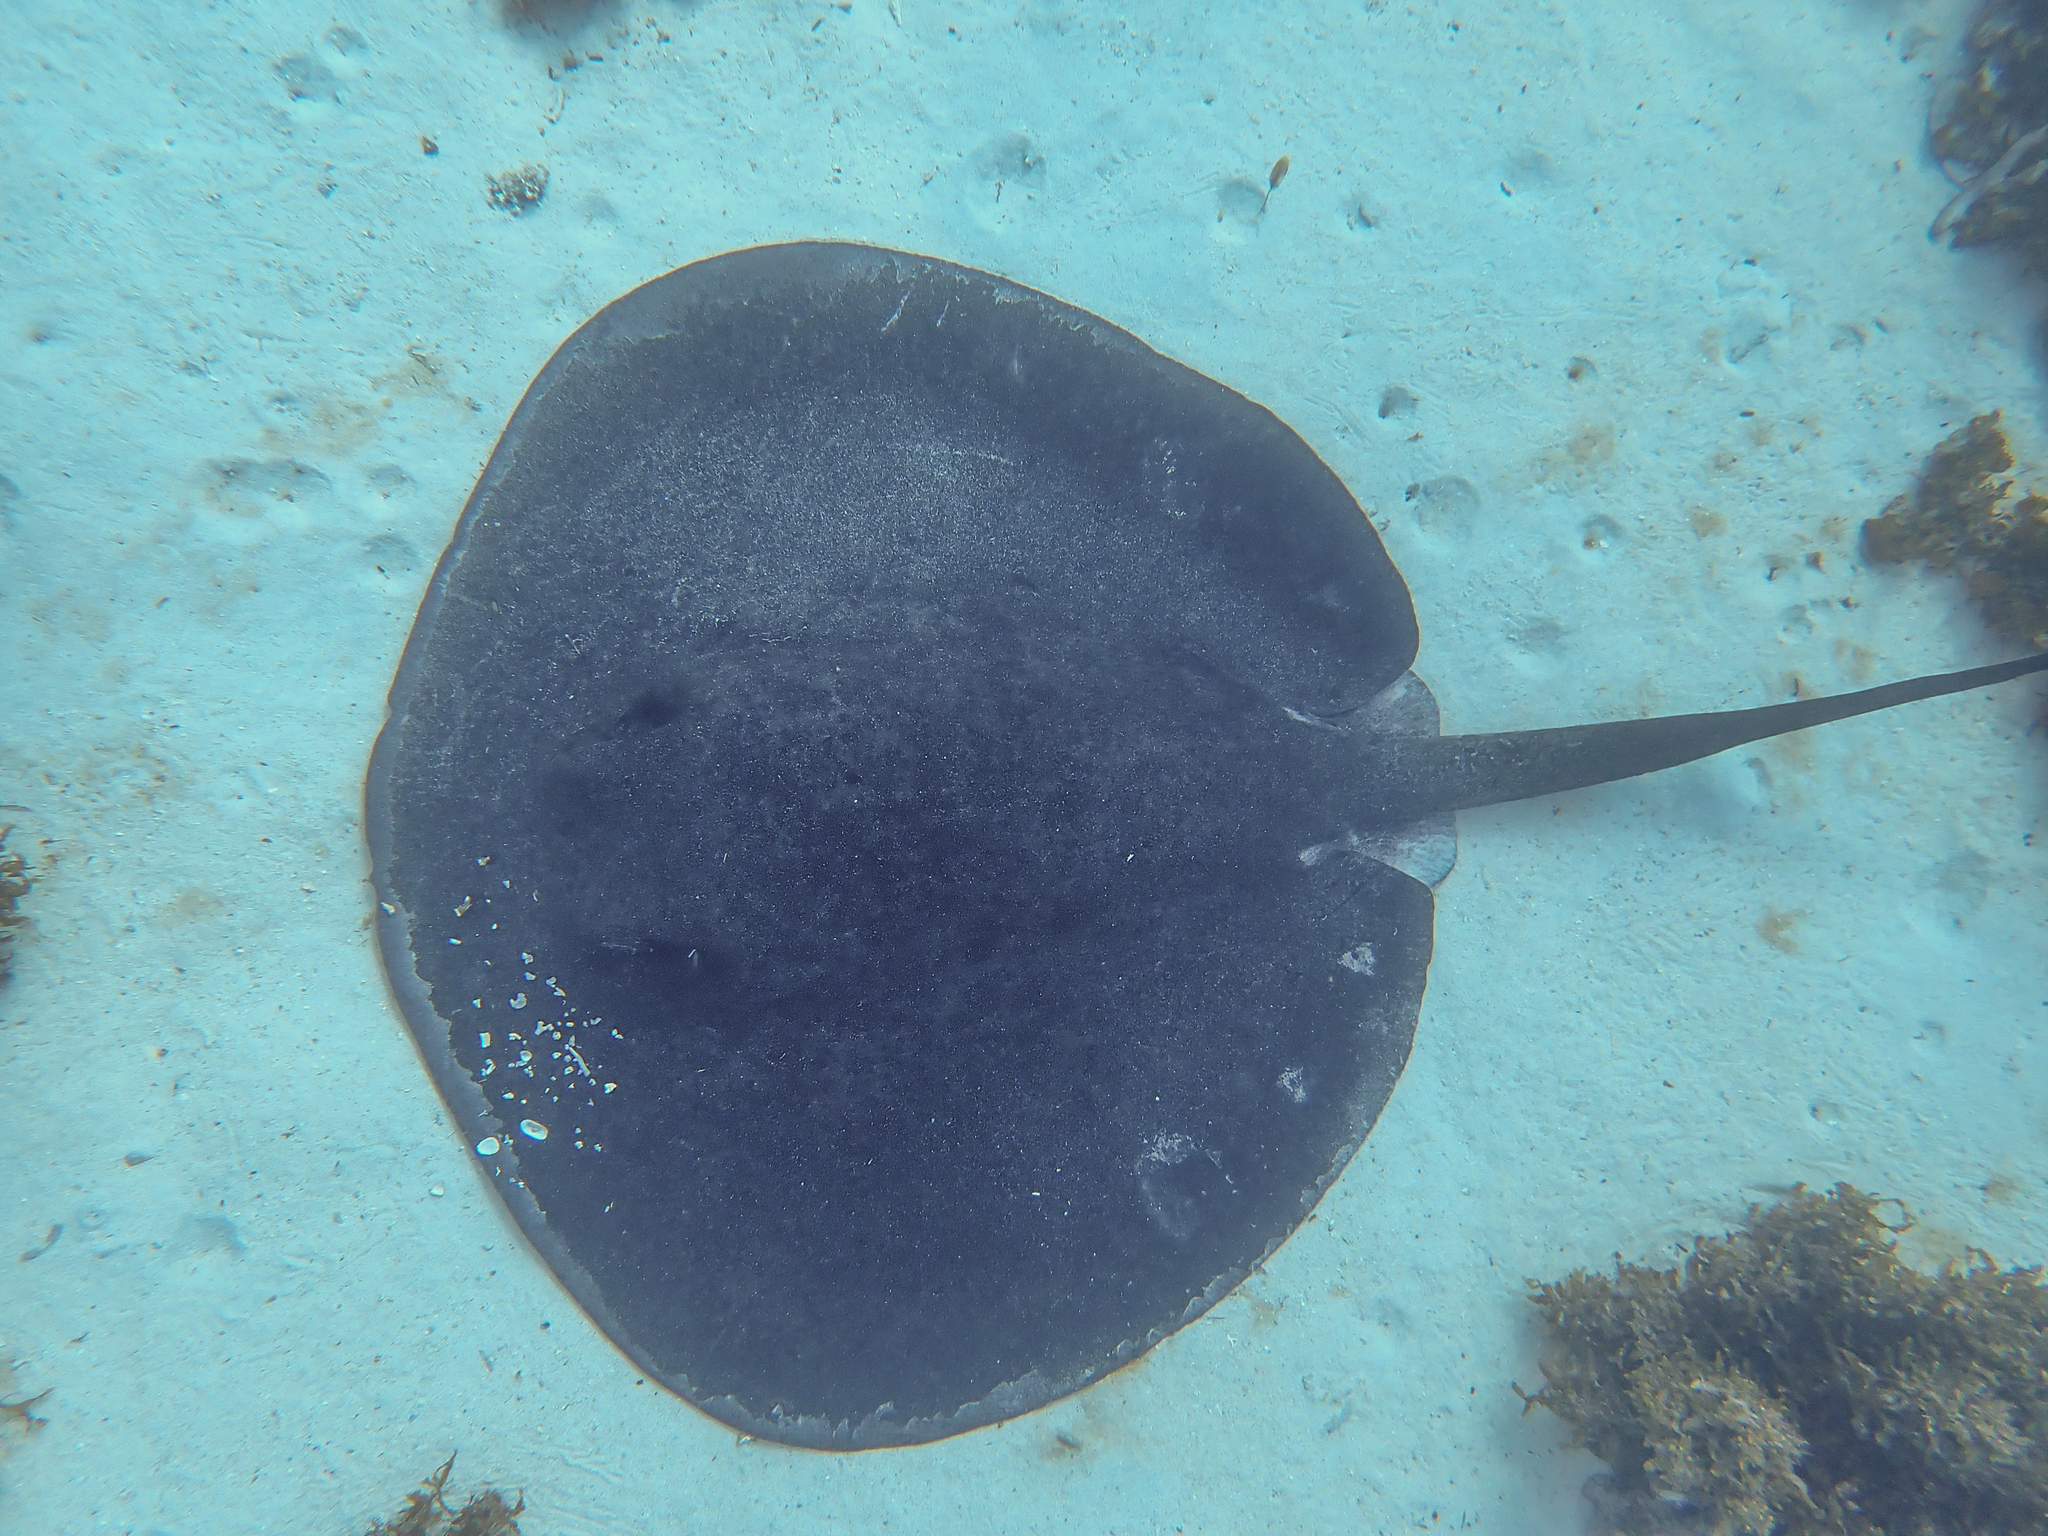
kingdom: Animalia
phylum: Chordata
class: Elasmobranchii
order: Myliobatiformes
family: Dasyatidae
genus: Taeniurops
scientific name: Taeniurops meyeni
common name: Black-blotched stingray
